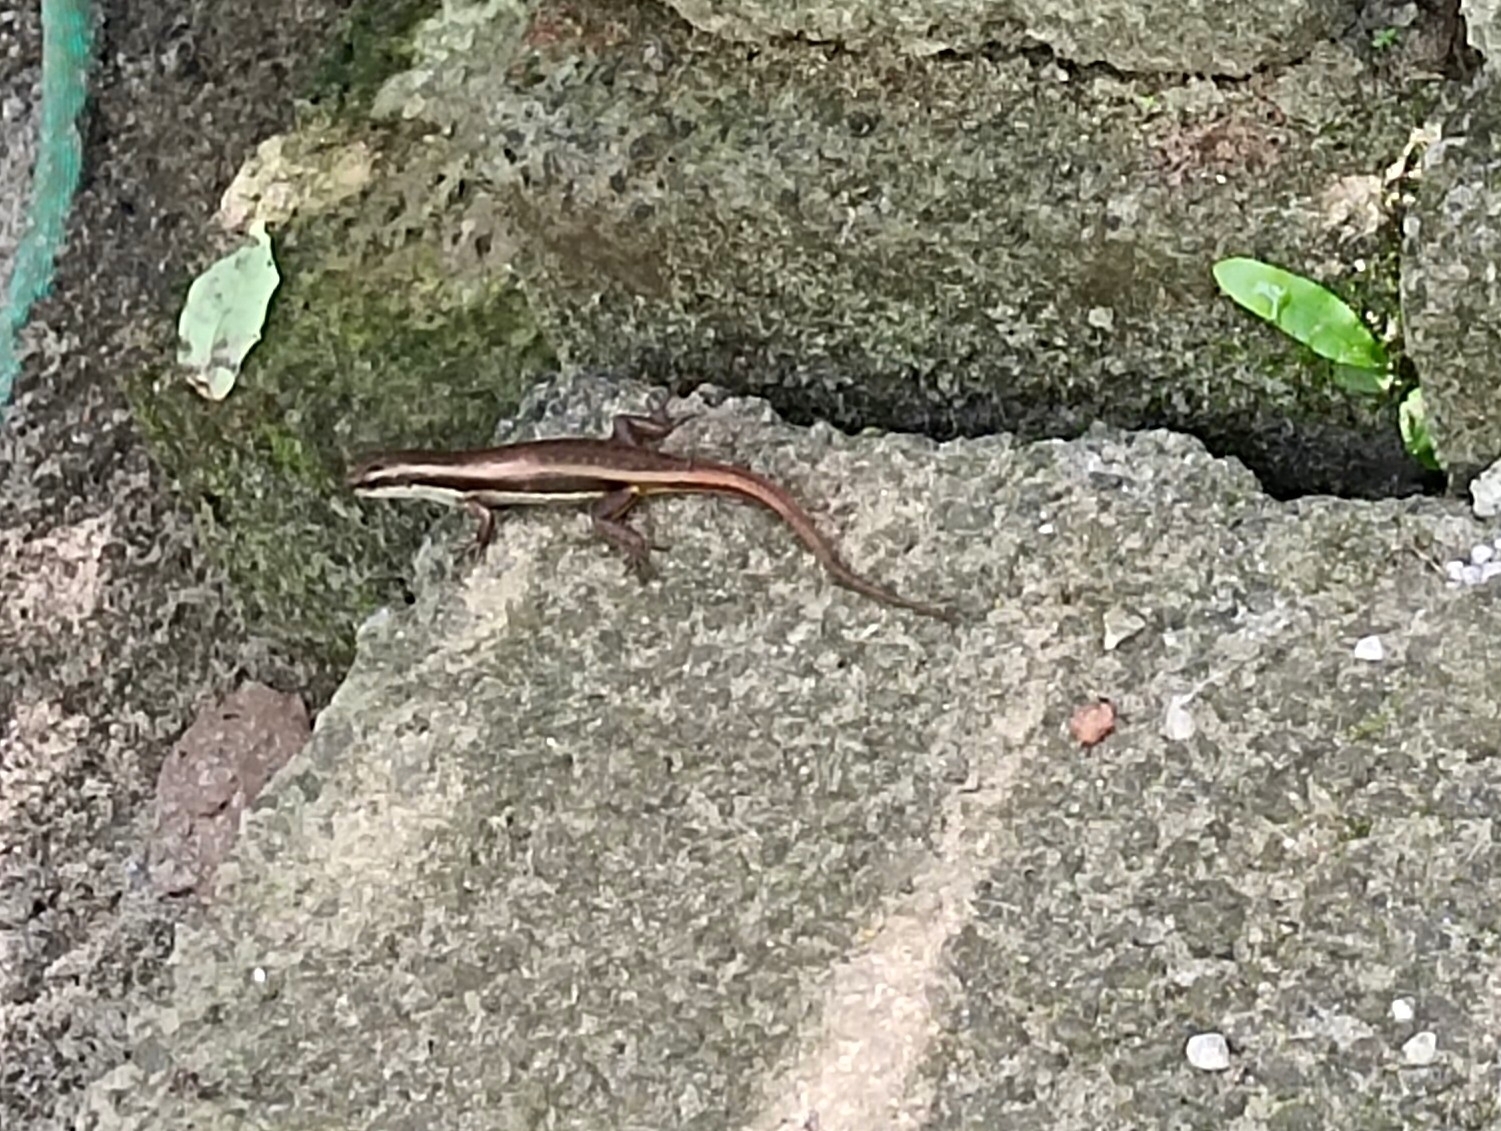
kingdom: Animalia
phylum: Chordata
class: Squamata
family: Scincidae
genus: Sphenomorphus
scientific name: Sphenomorphus dussumieri
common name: Dussumier's forest skink
